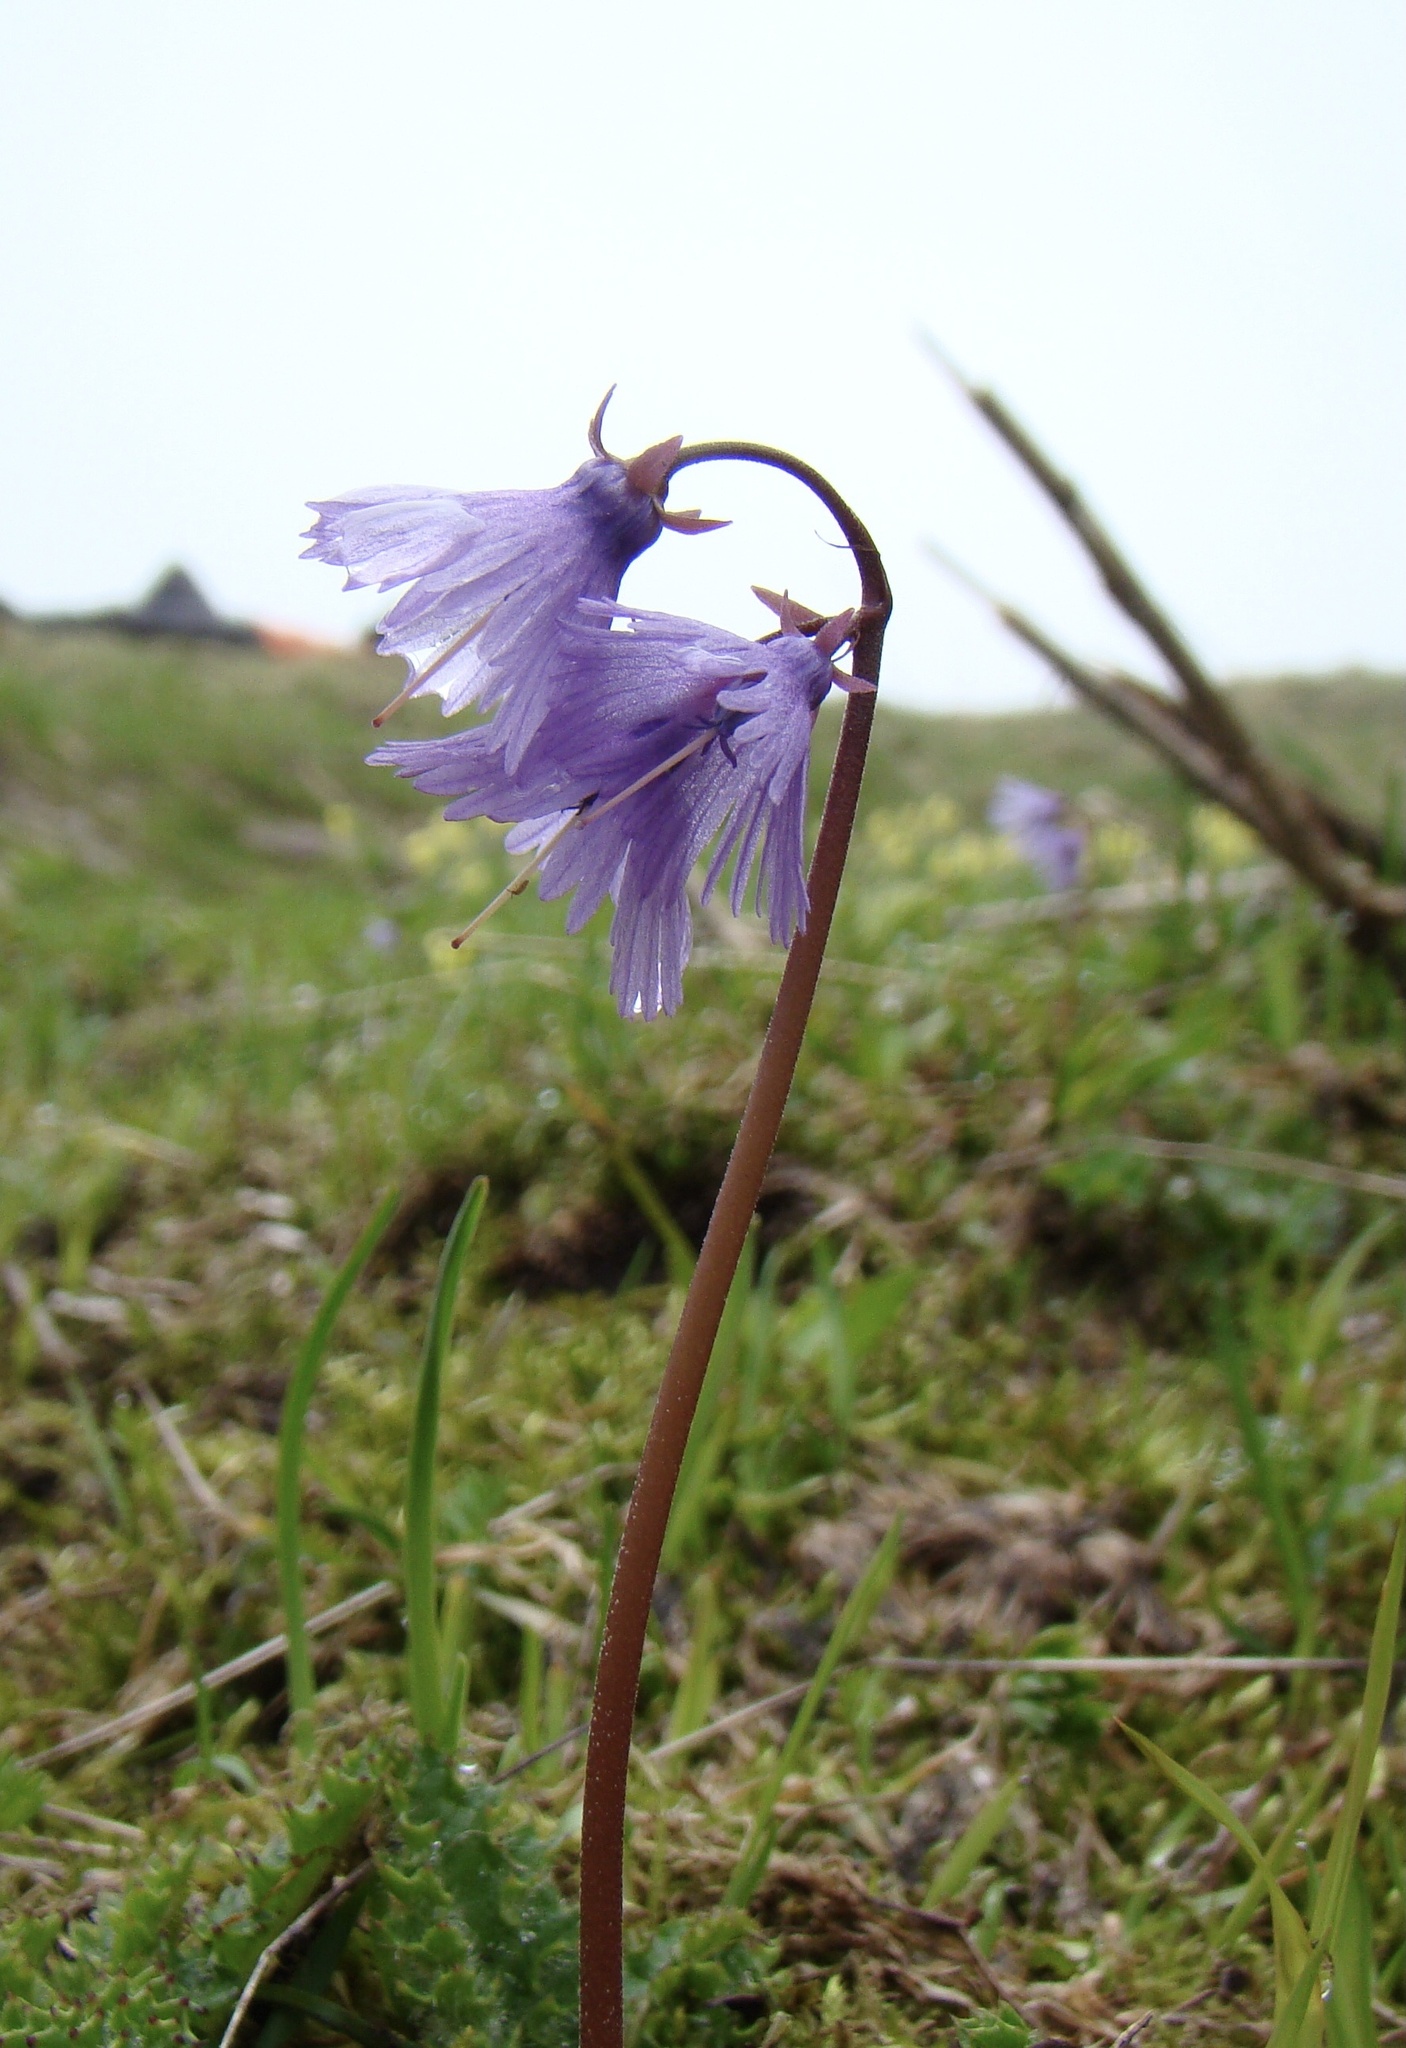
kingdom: Plantae
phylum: Tracheophyta
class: Magnoliopsida
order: Ericales
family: Primulaceae
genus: Soldanella
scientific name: Soldanella alpina
